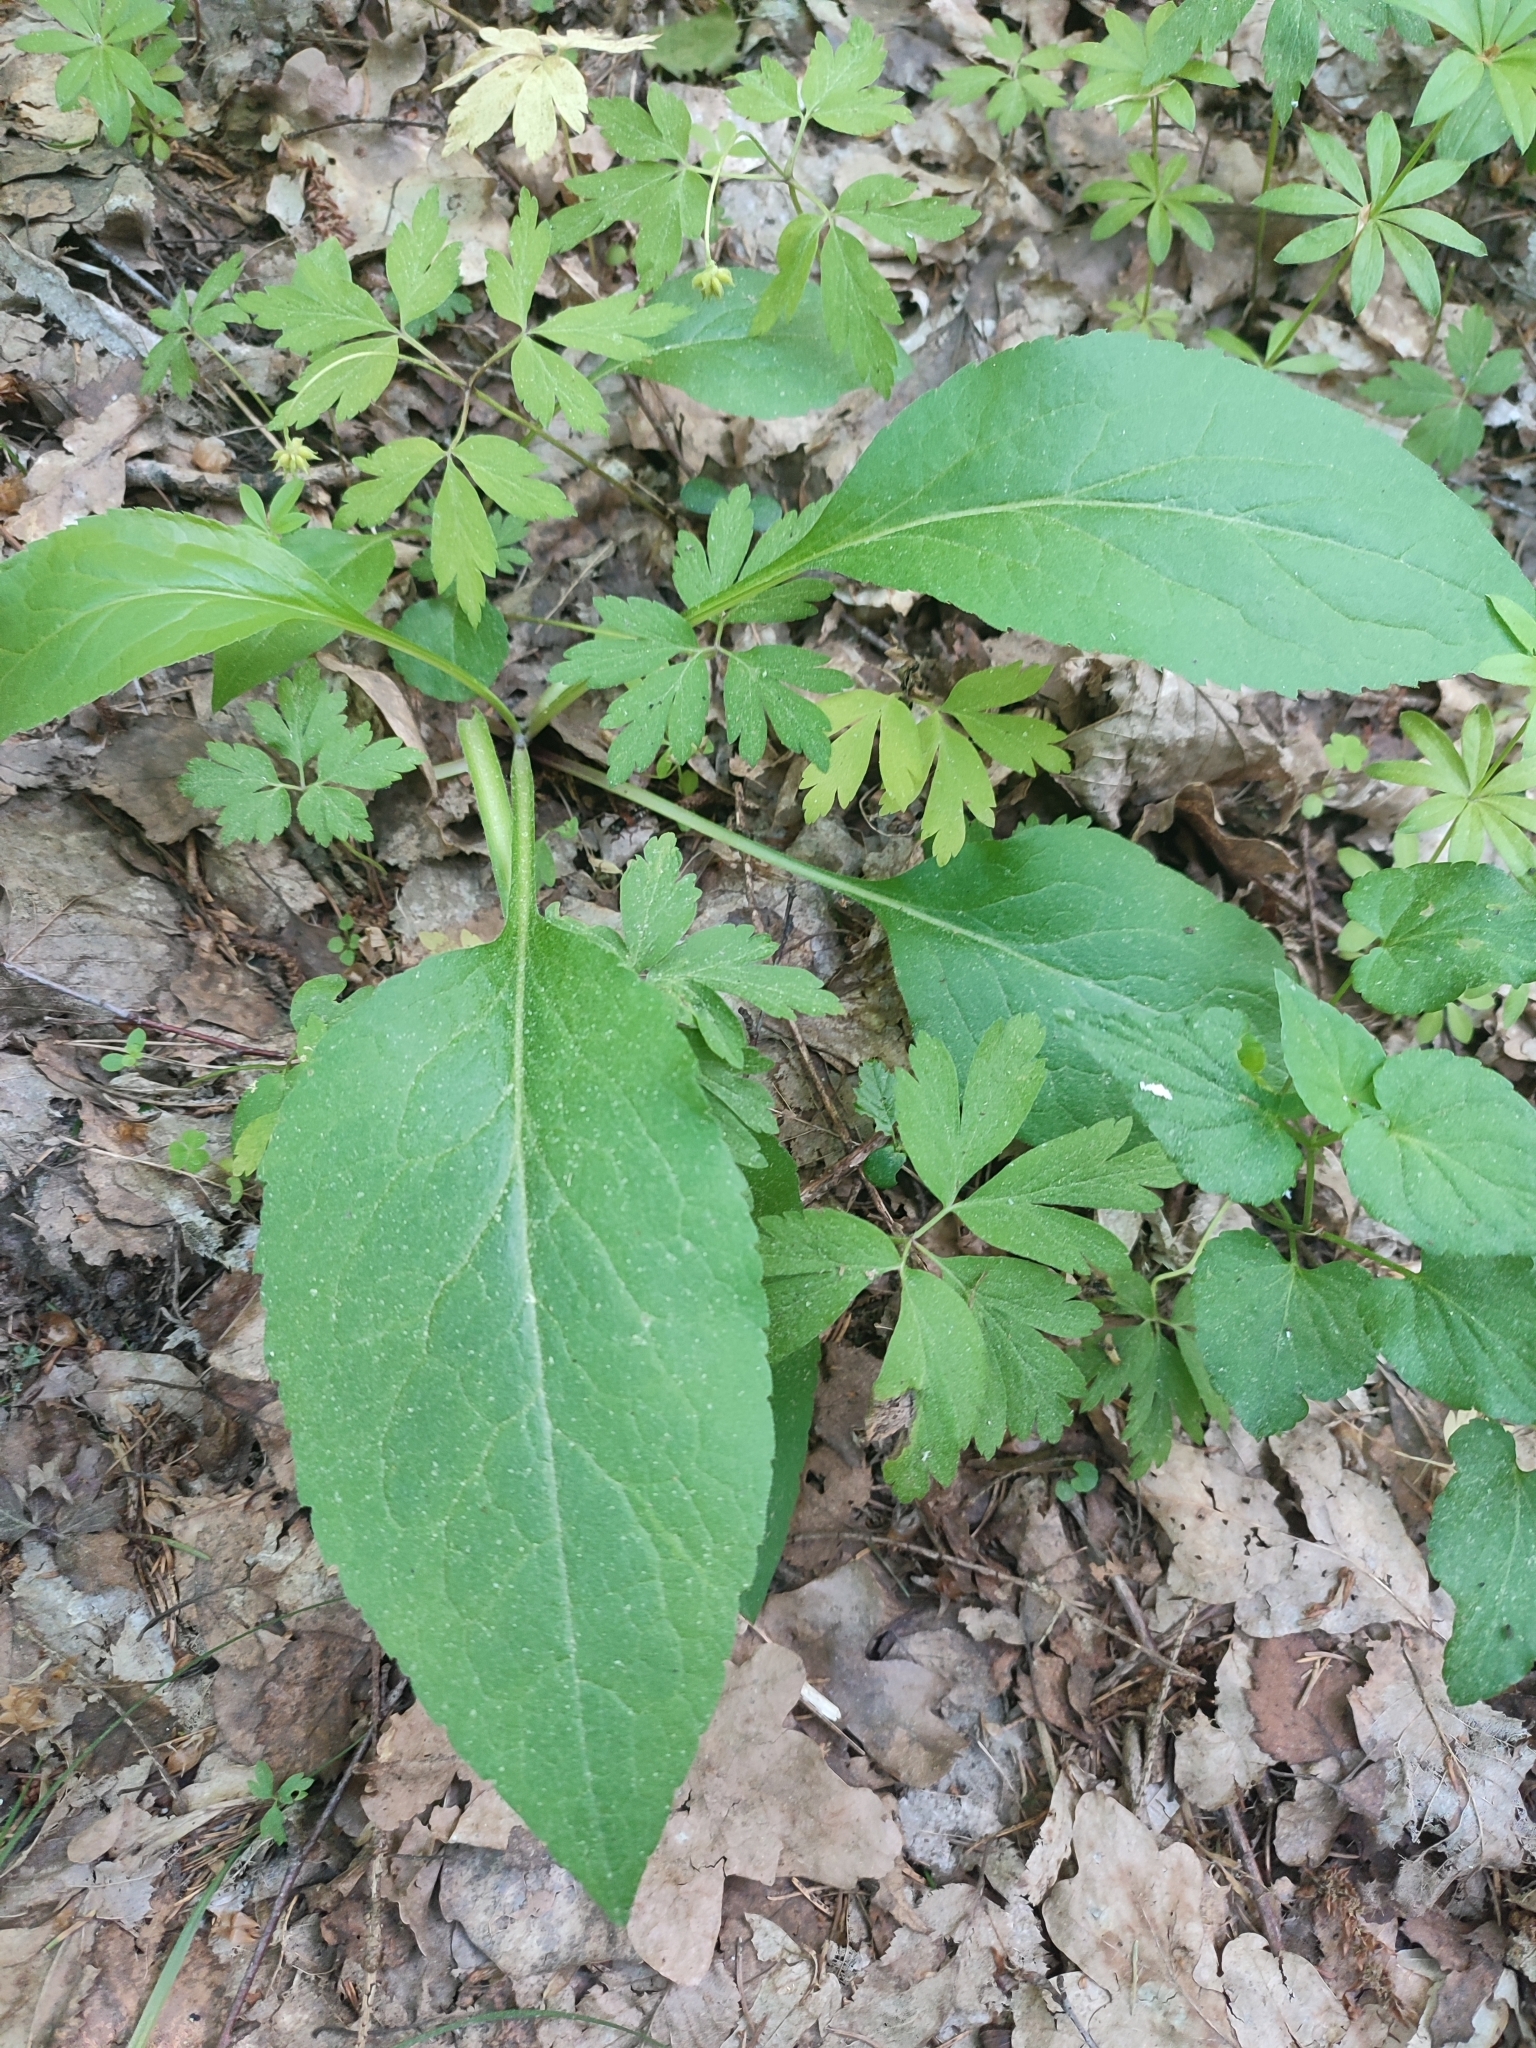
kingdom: Plantae
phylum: Tracheophyta
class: Magnoliopsida
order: Asterales
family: Asteraceae
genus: Solidago
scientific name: Solidago virgaurea
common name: Goldenrod
